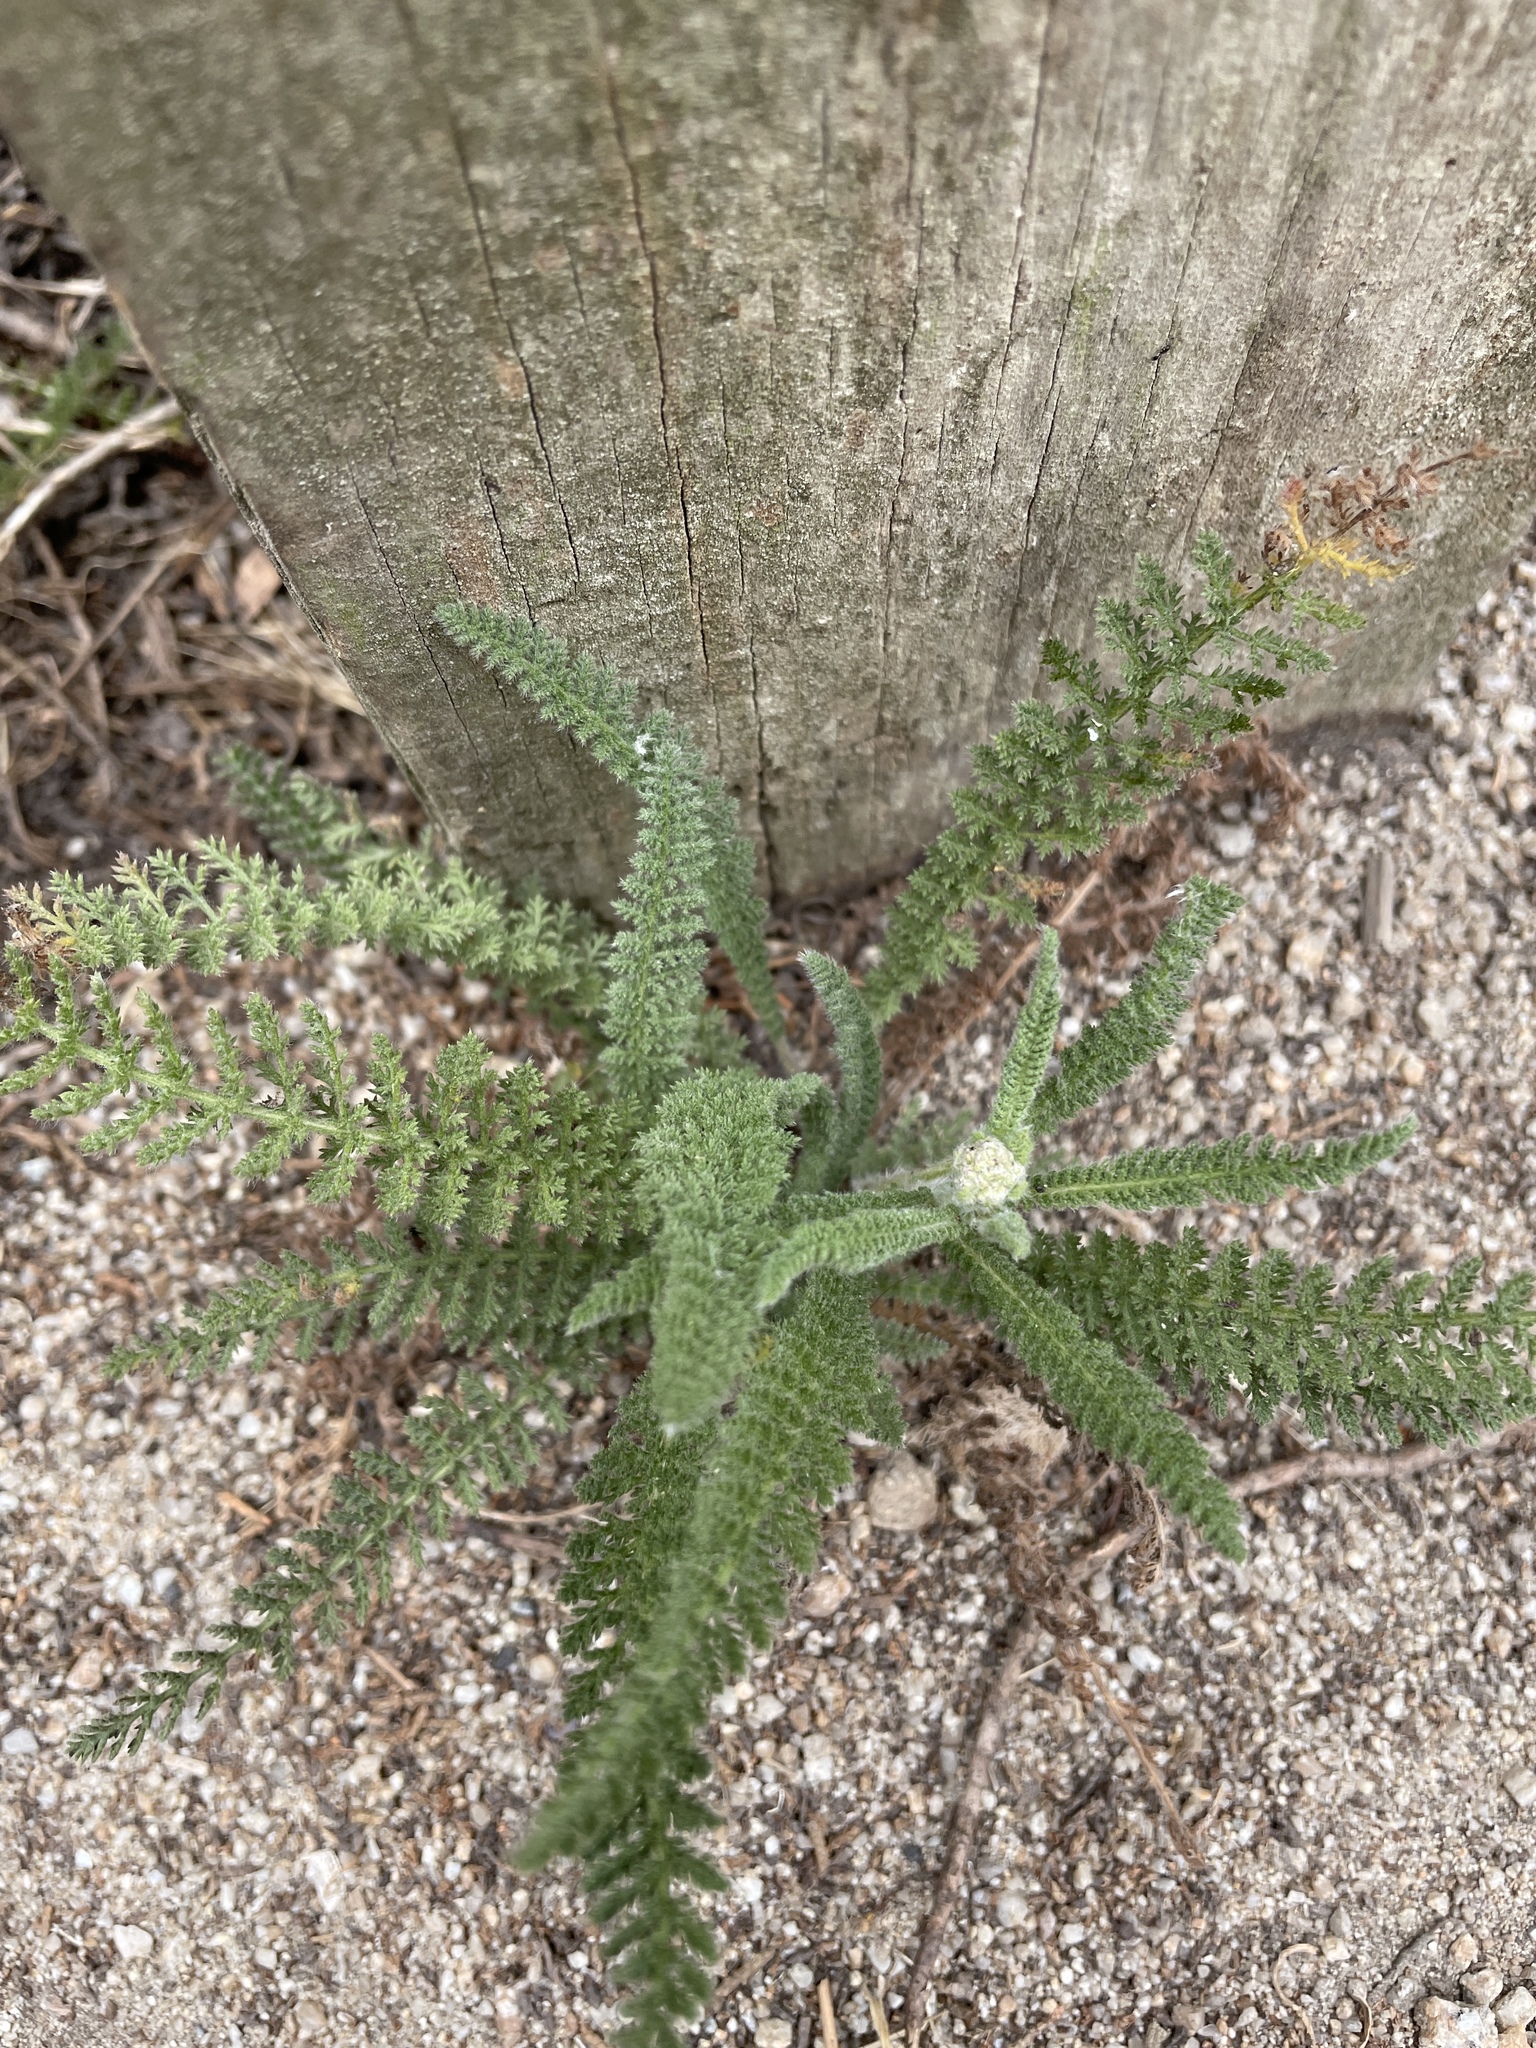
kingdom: Plantae
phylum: Tracheophyta
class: Magnoliopsida
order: Asterales
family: Asteraceae
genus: Achillea
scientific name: Achillea millefolium
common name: Yarrow
